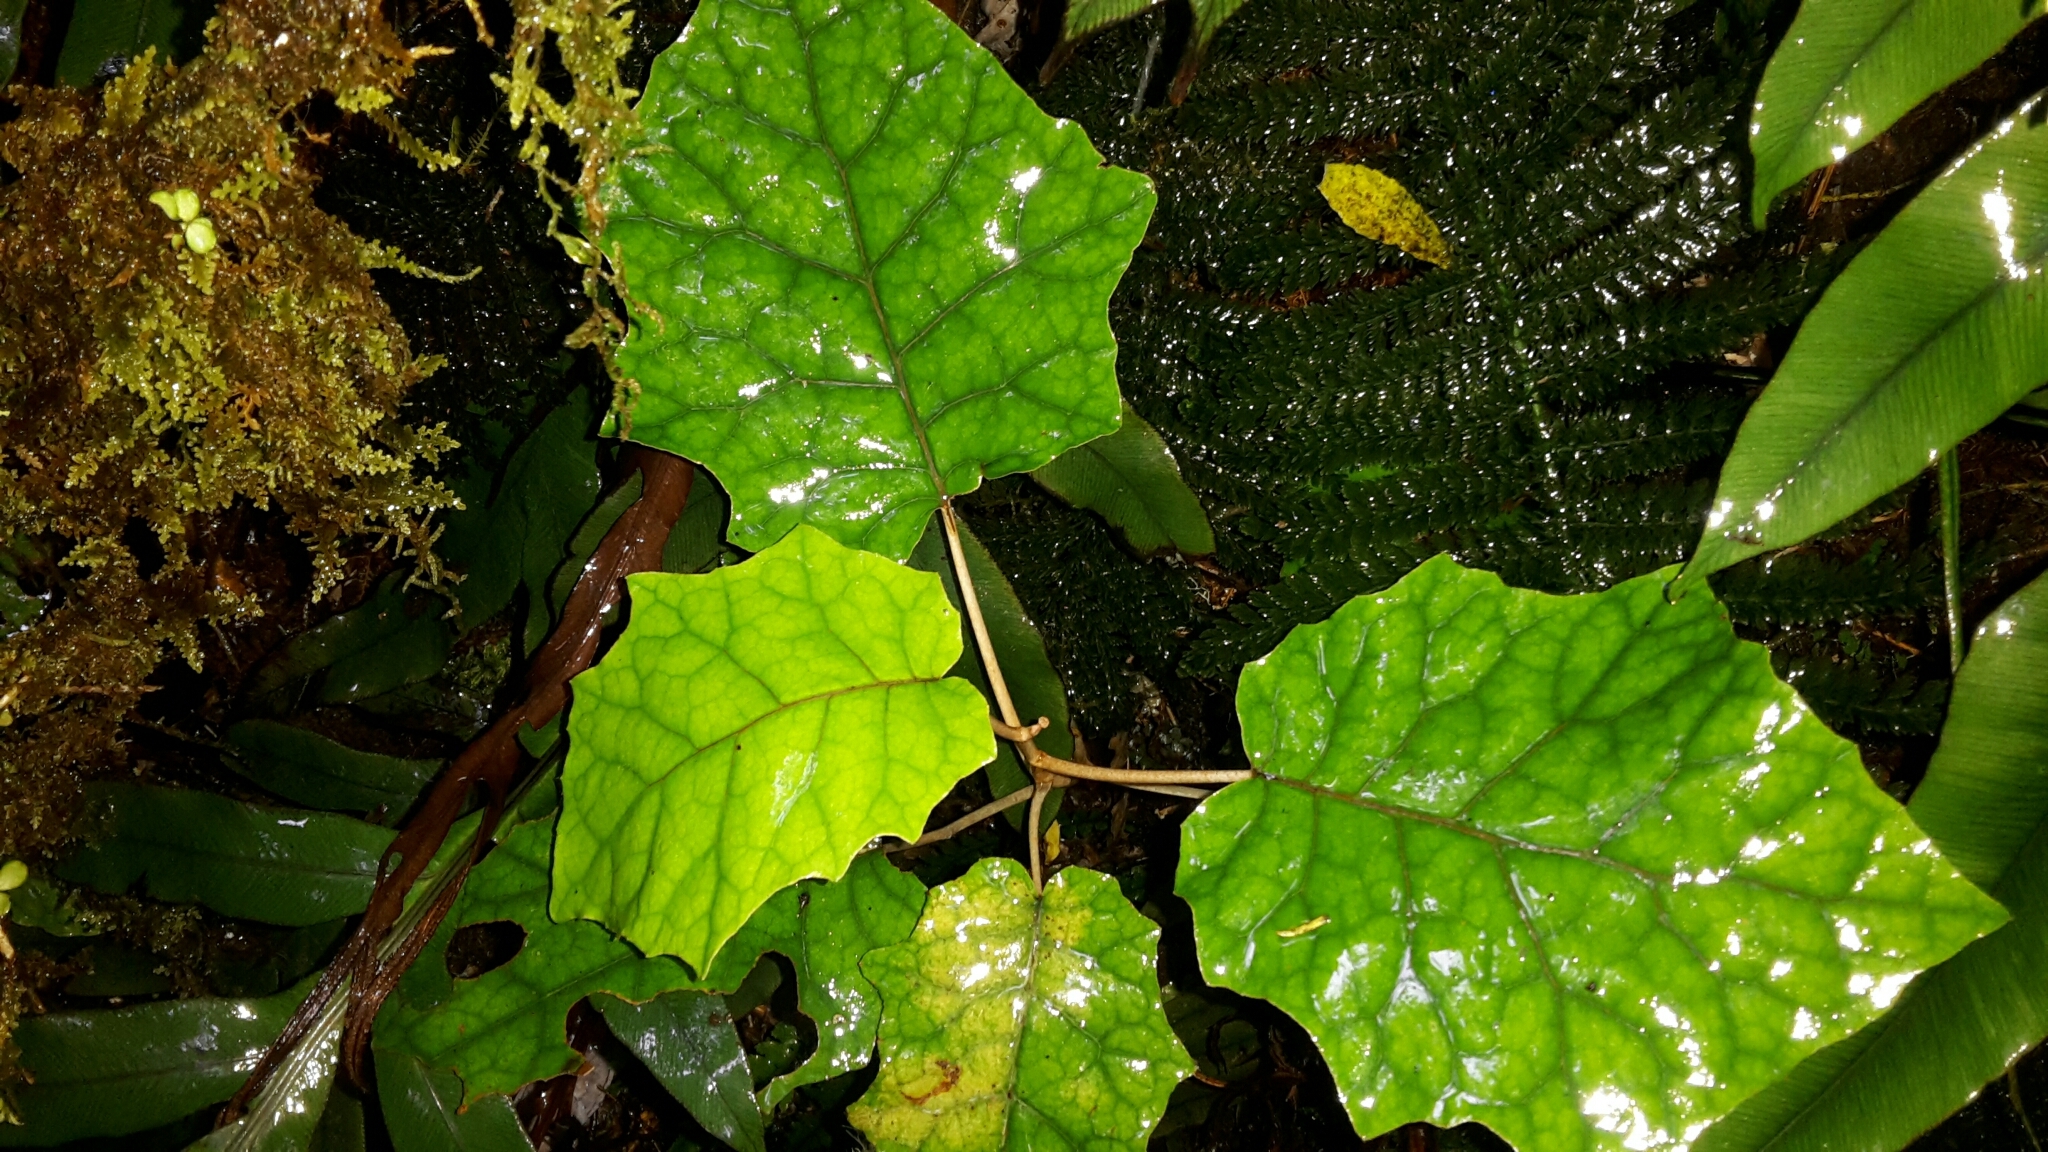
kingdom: Plantae
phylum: Tracheophyta
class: Magnoliopsida
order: Asterales
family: Asteraceae
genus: Brachyglottis
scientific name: Brachyglottis repanda
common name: Hedge ragwort
